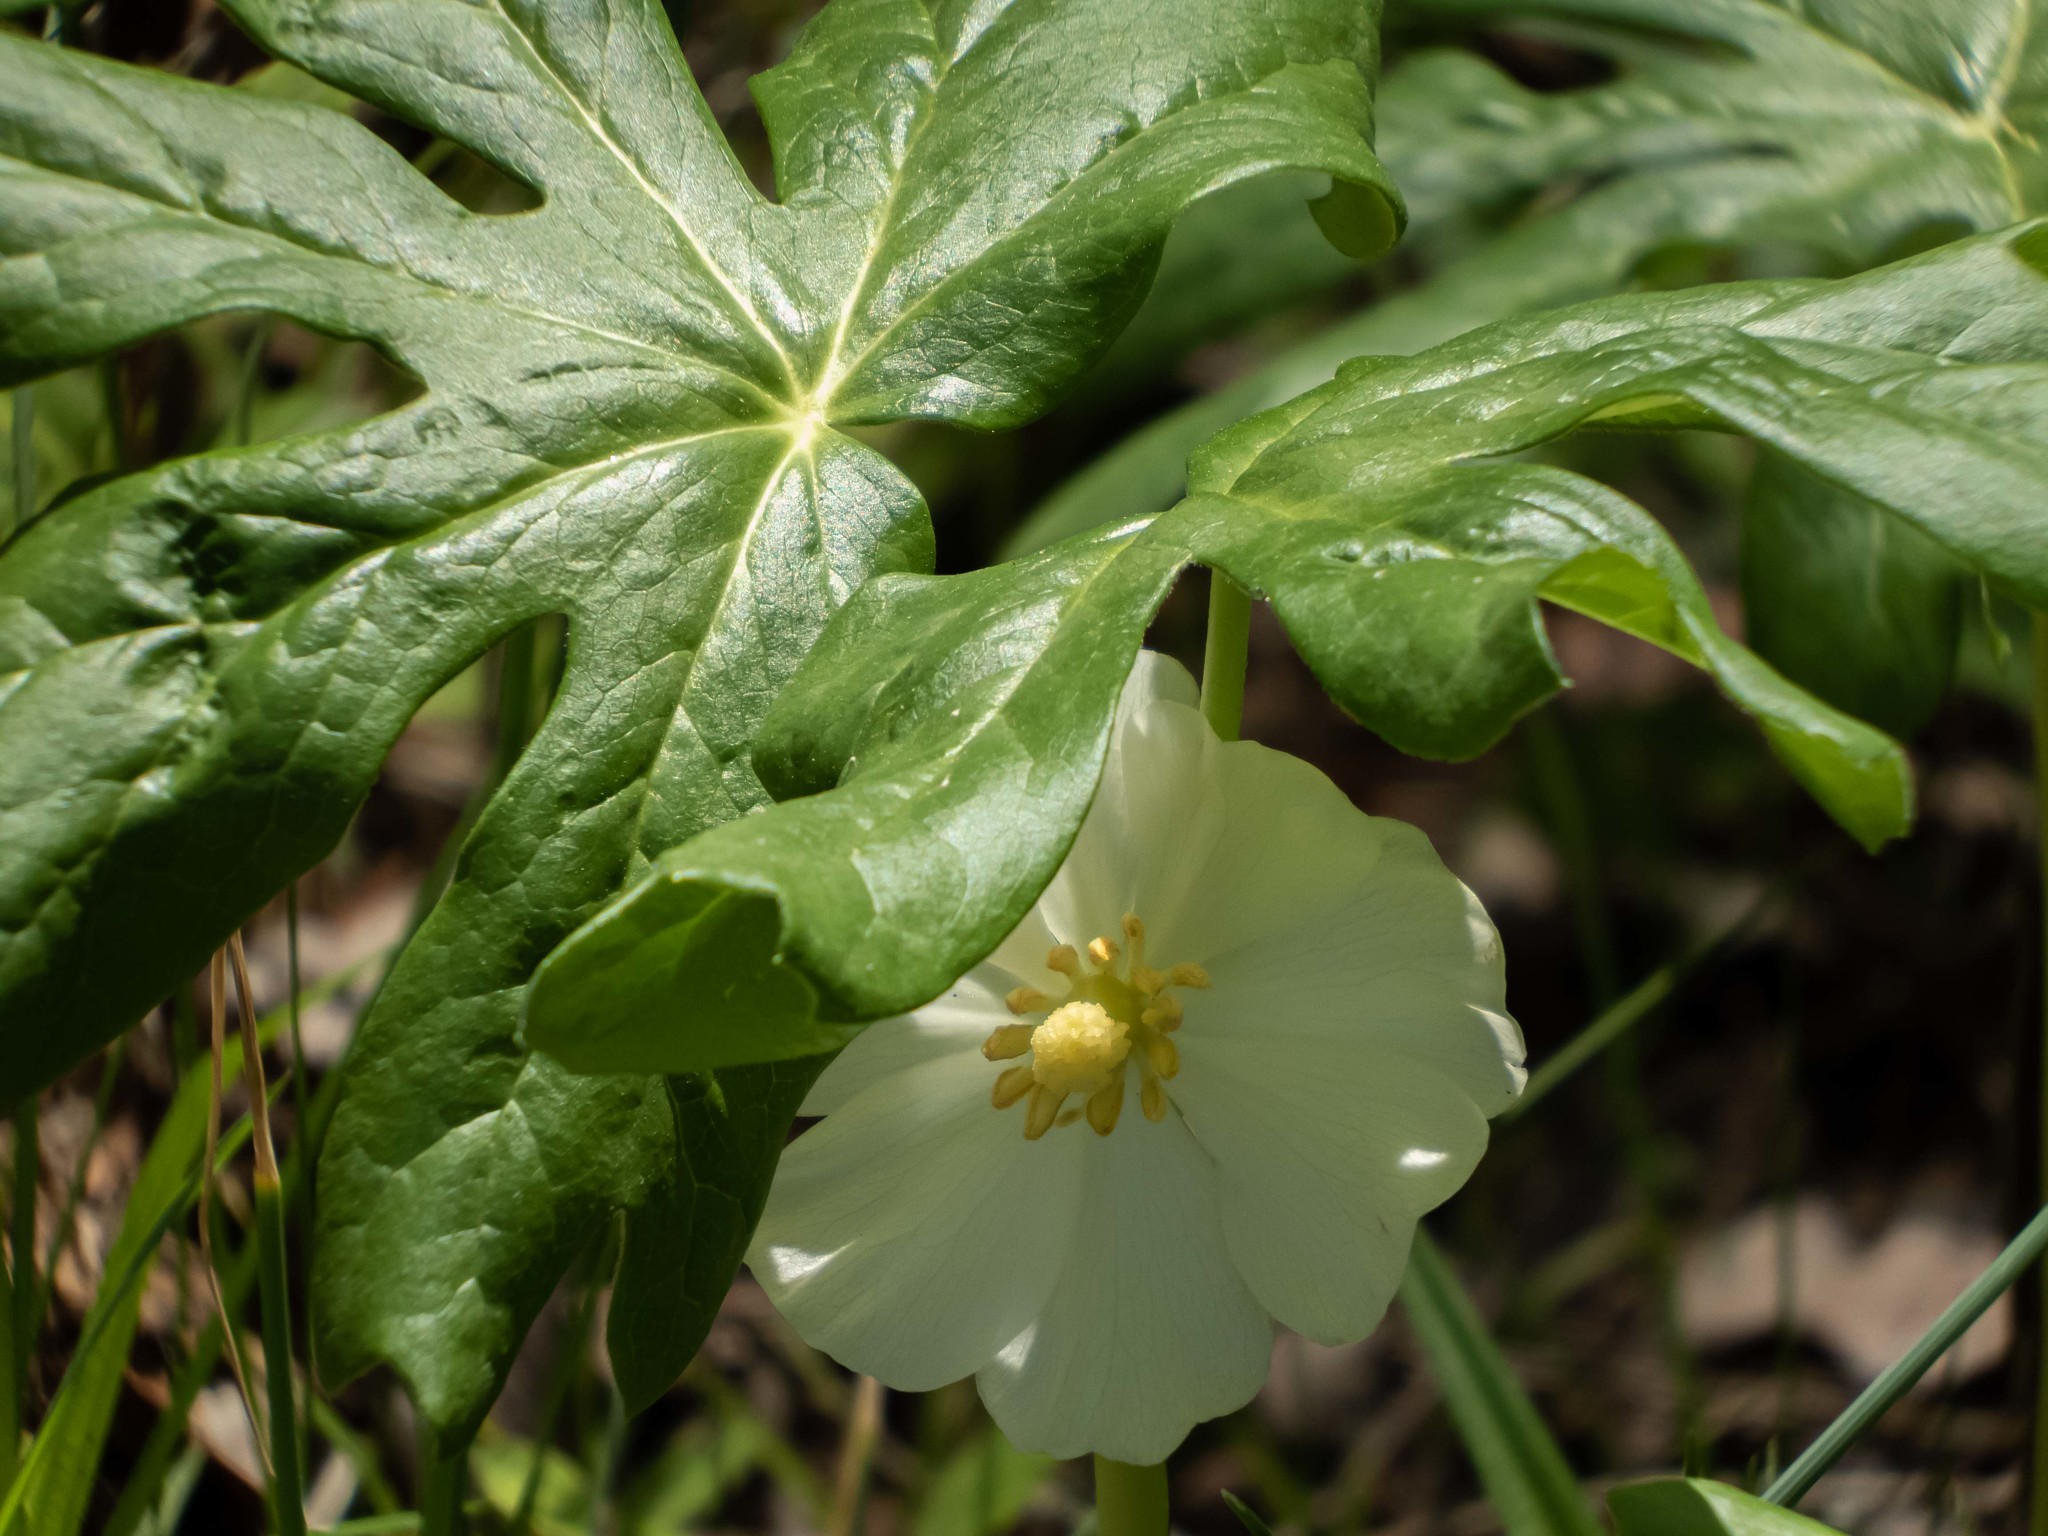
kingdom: Plantae
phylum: Tracheophyta
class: Magnoliopsida
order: Ranunculales
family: Berberidaceae
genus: Podophyllum
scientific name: Podophyllum peltatum
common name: Wild mandrake
